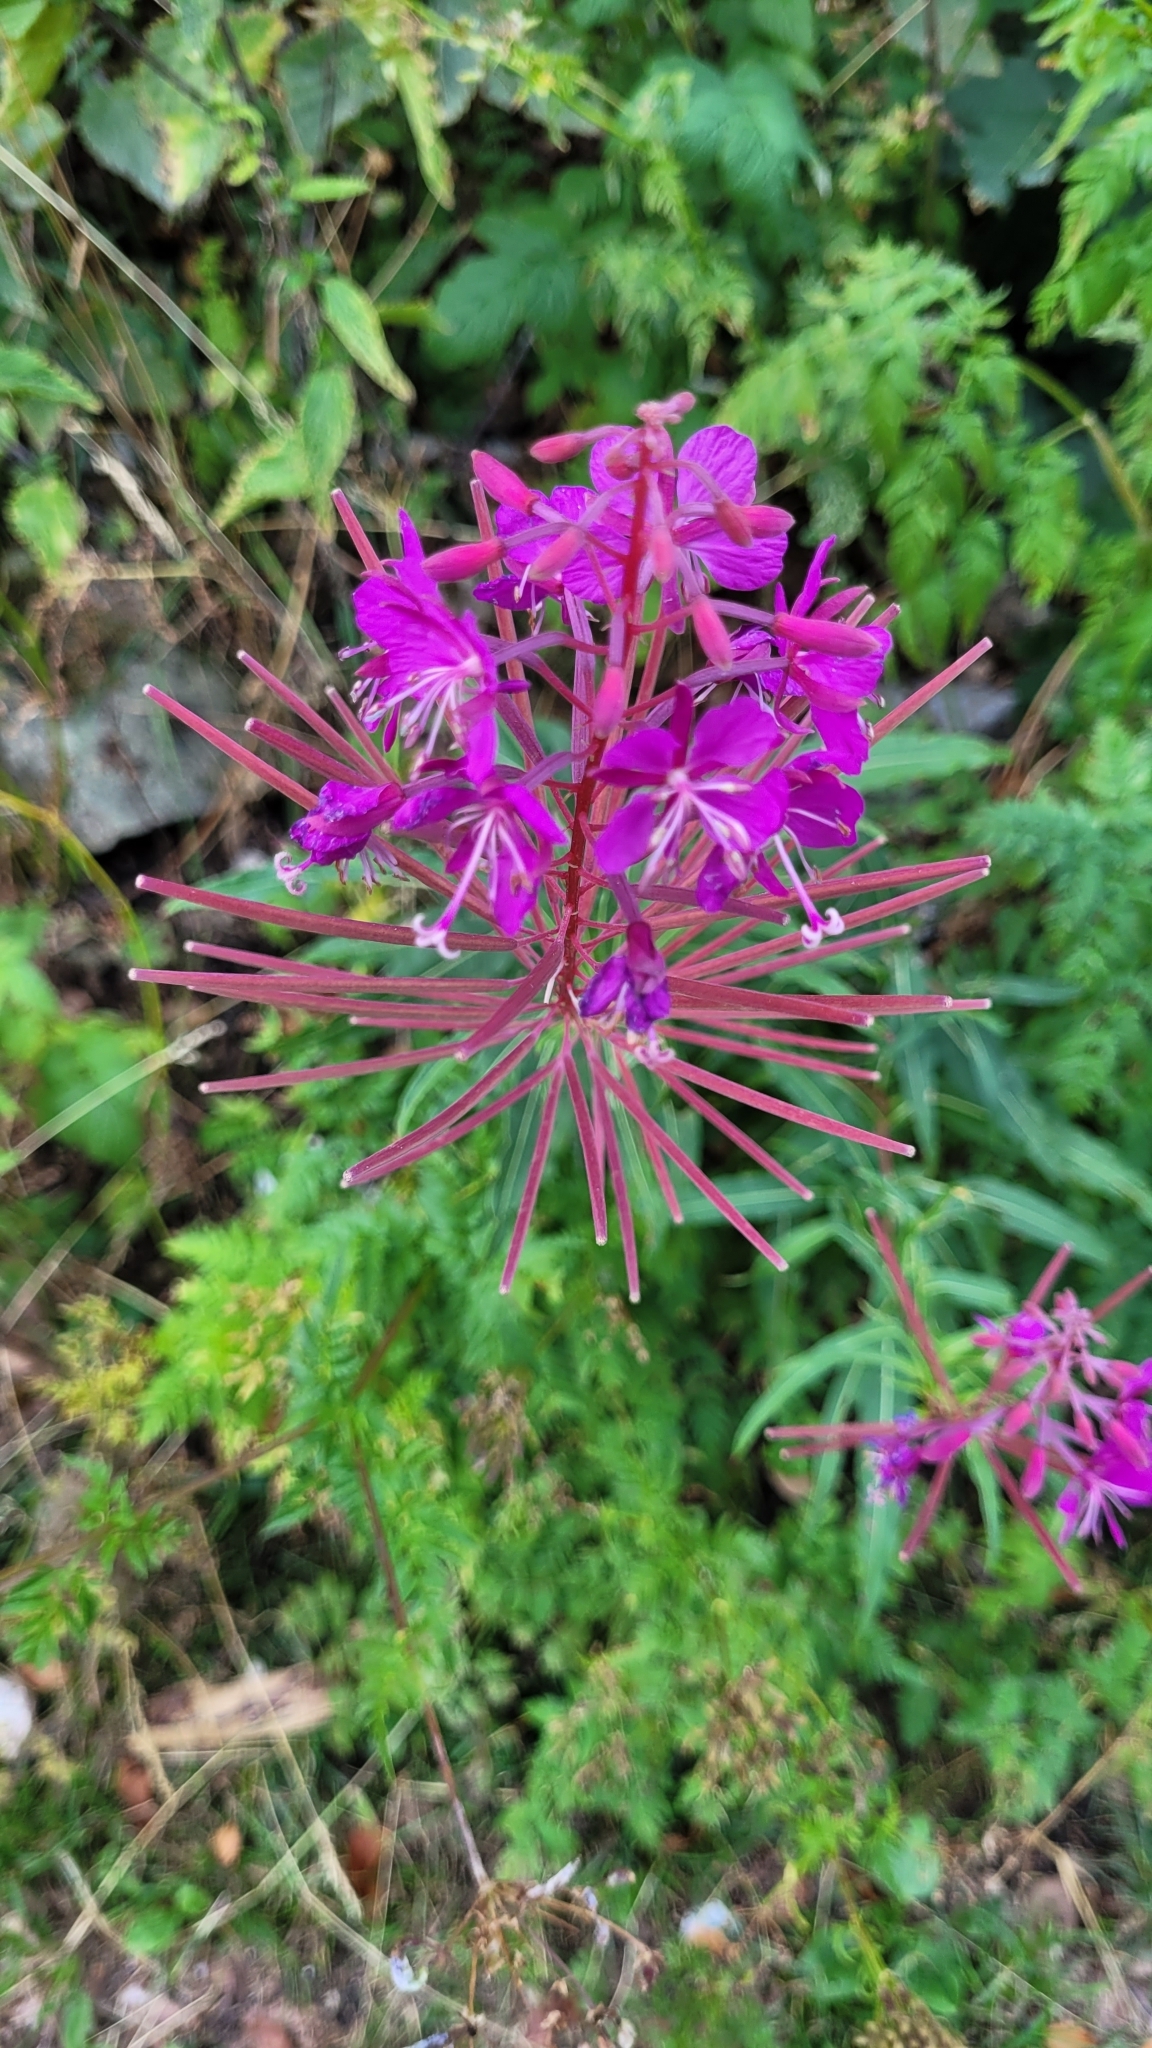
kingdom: Plantae
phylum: Tracheophyta
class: Magnoliopsida
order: Myrtales
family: Onagraceae
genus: Chamaenerion
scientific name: Chamaenerion angustifolium
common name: Fireweed
